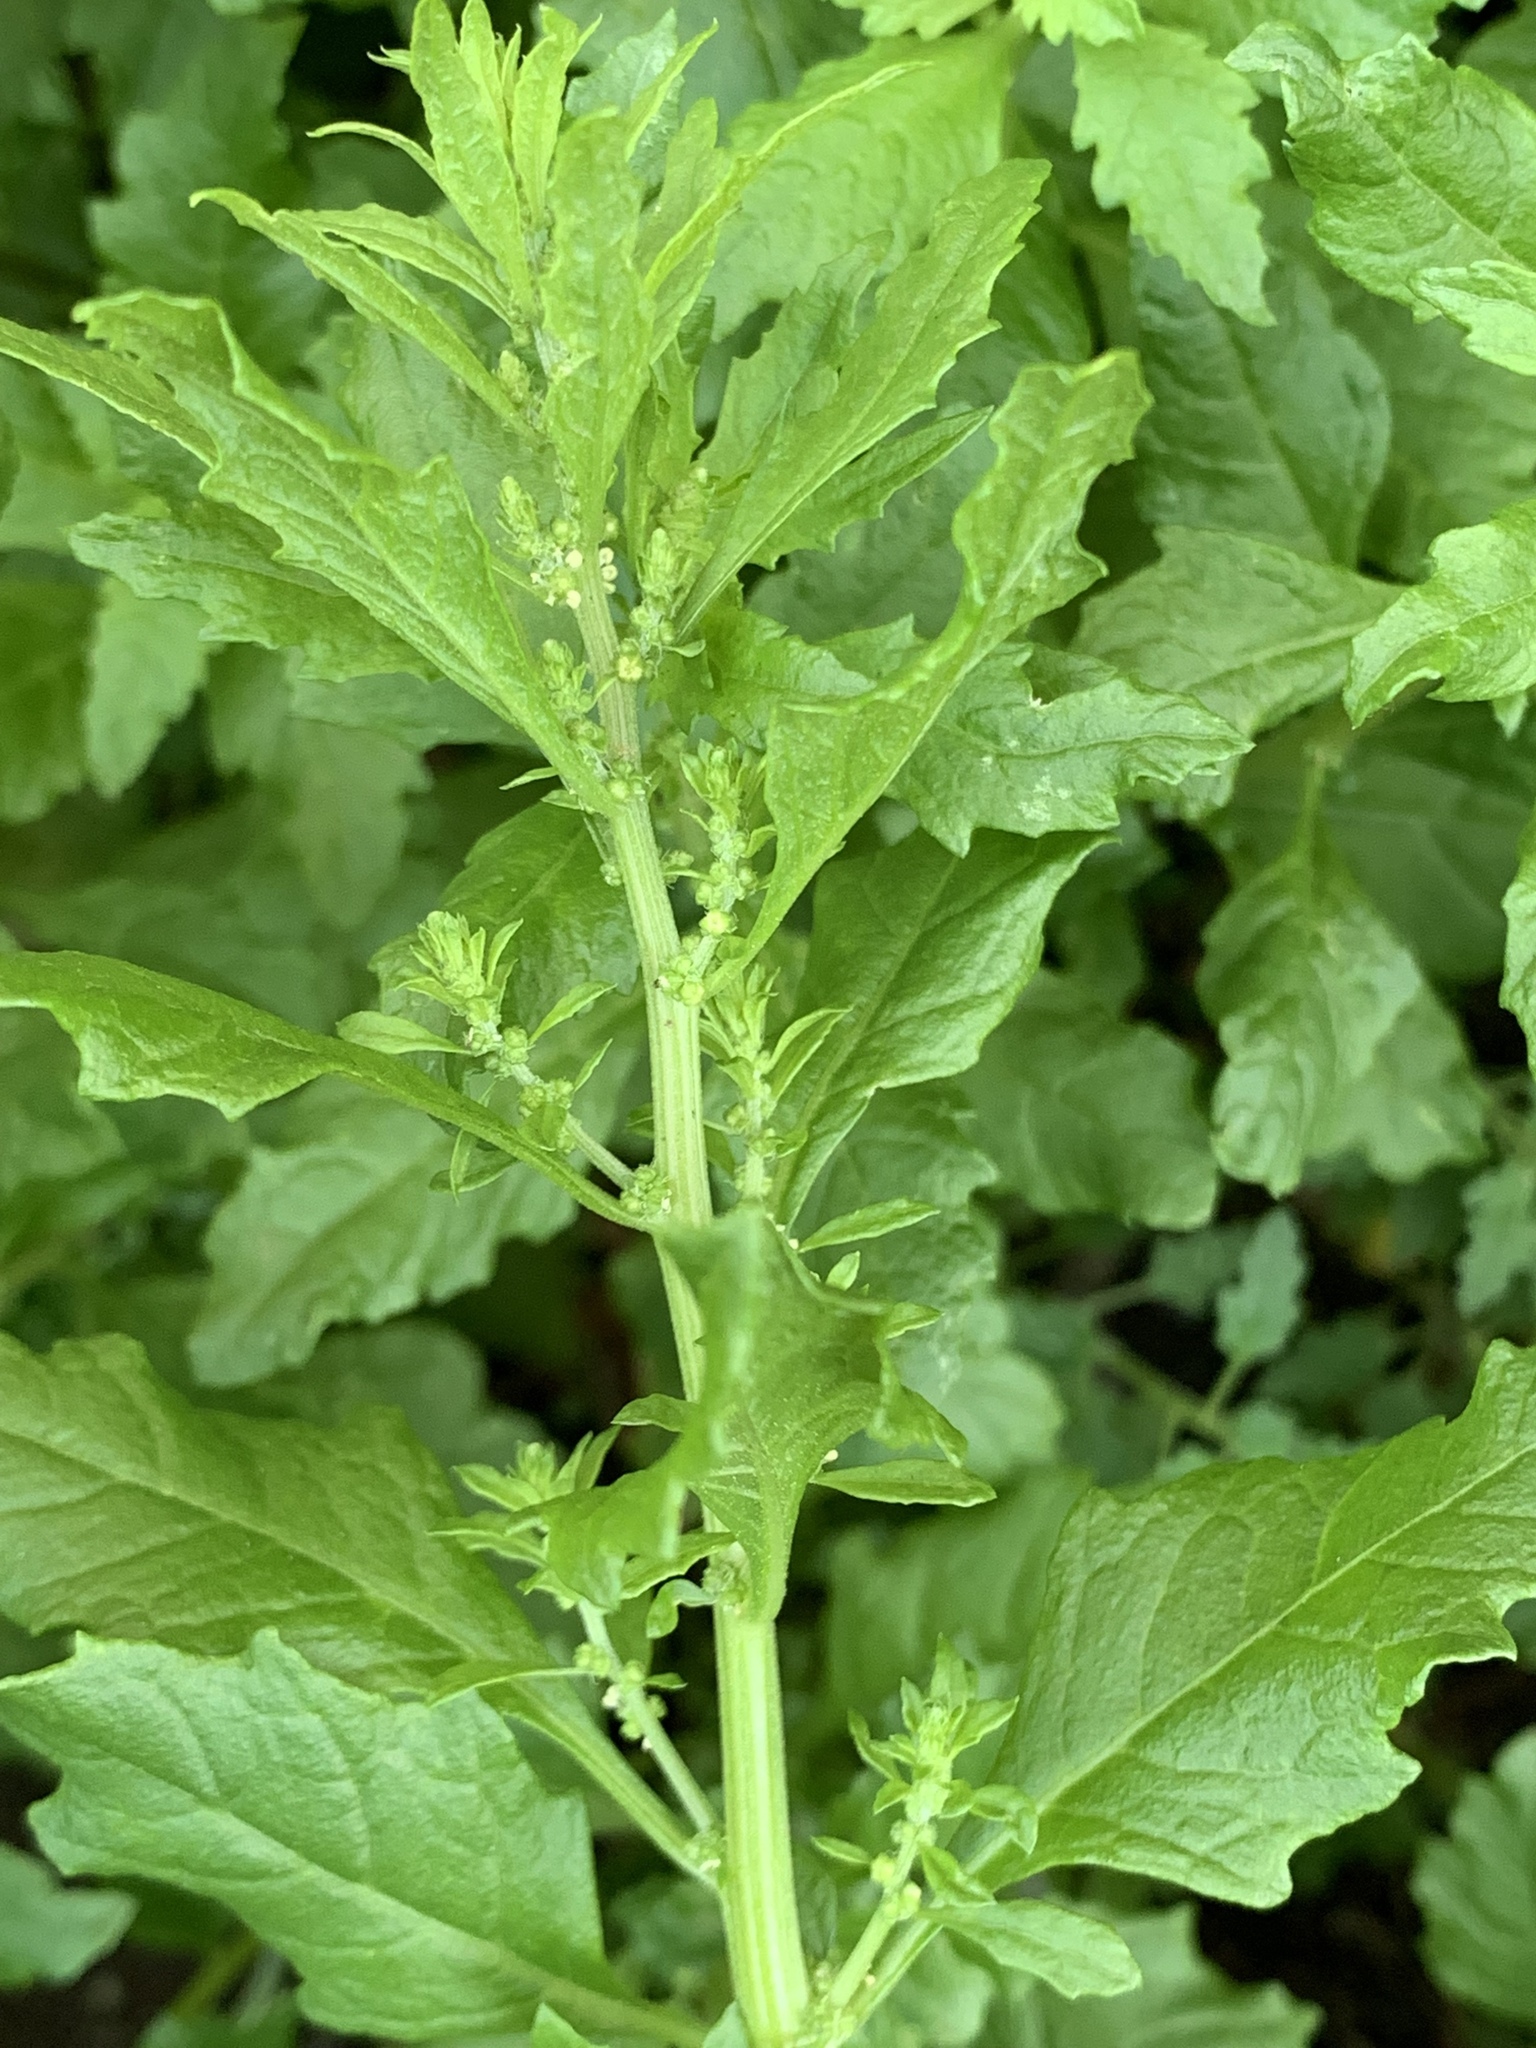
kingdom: Plantae
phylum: Tracheophyta
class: Magnoliopsida
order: Caryophyllales
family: Amaranthaceae
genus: Dysphania
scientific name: Dysphania ambrosioides
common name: Wormseed
